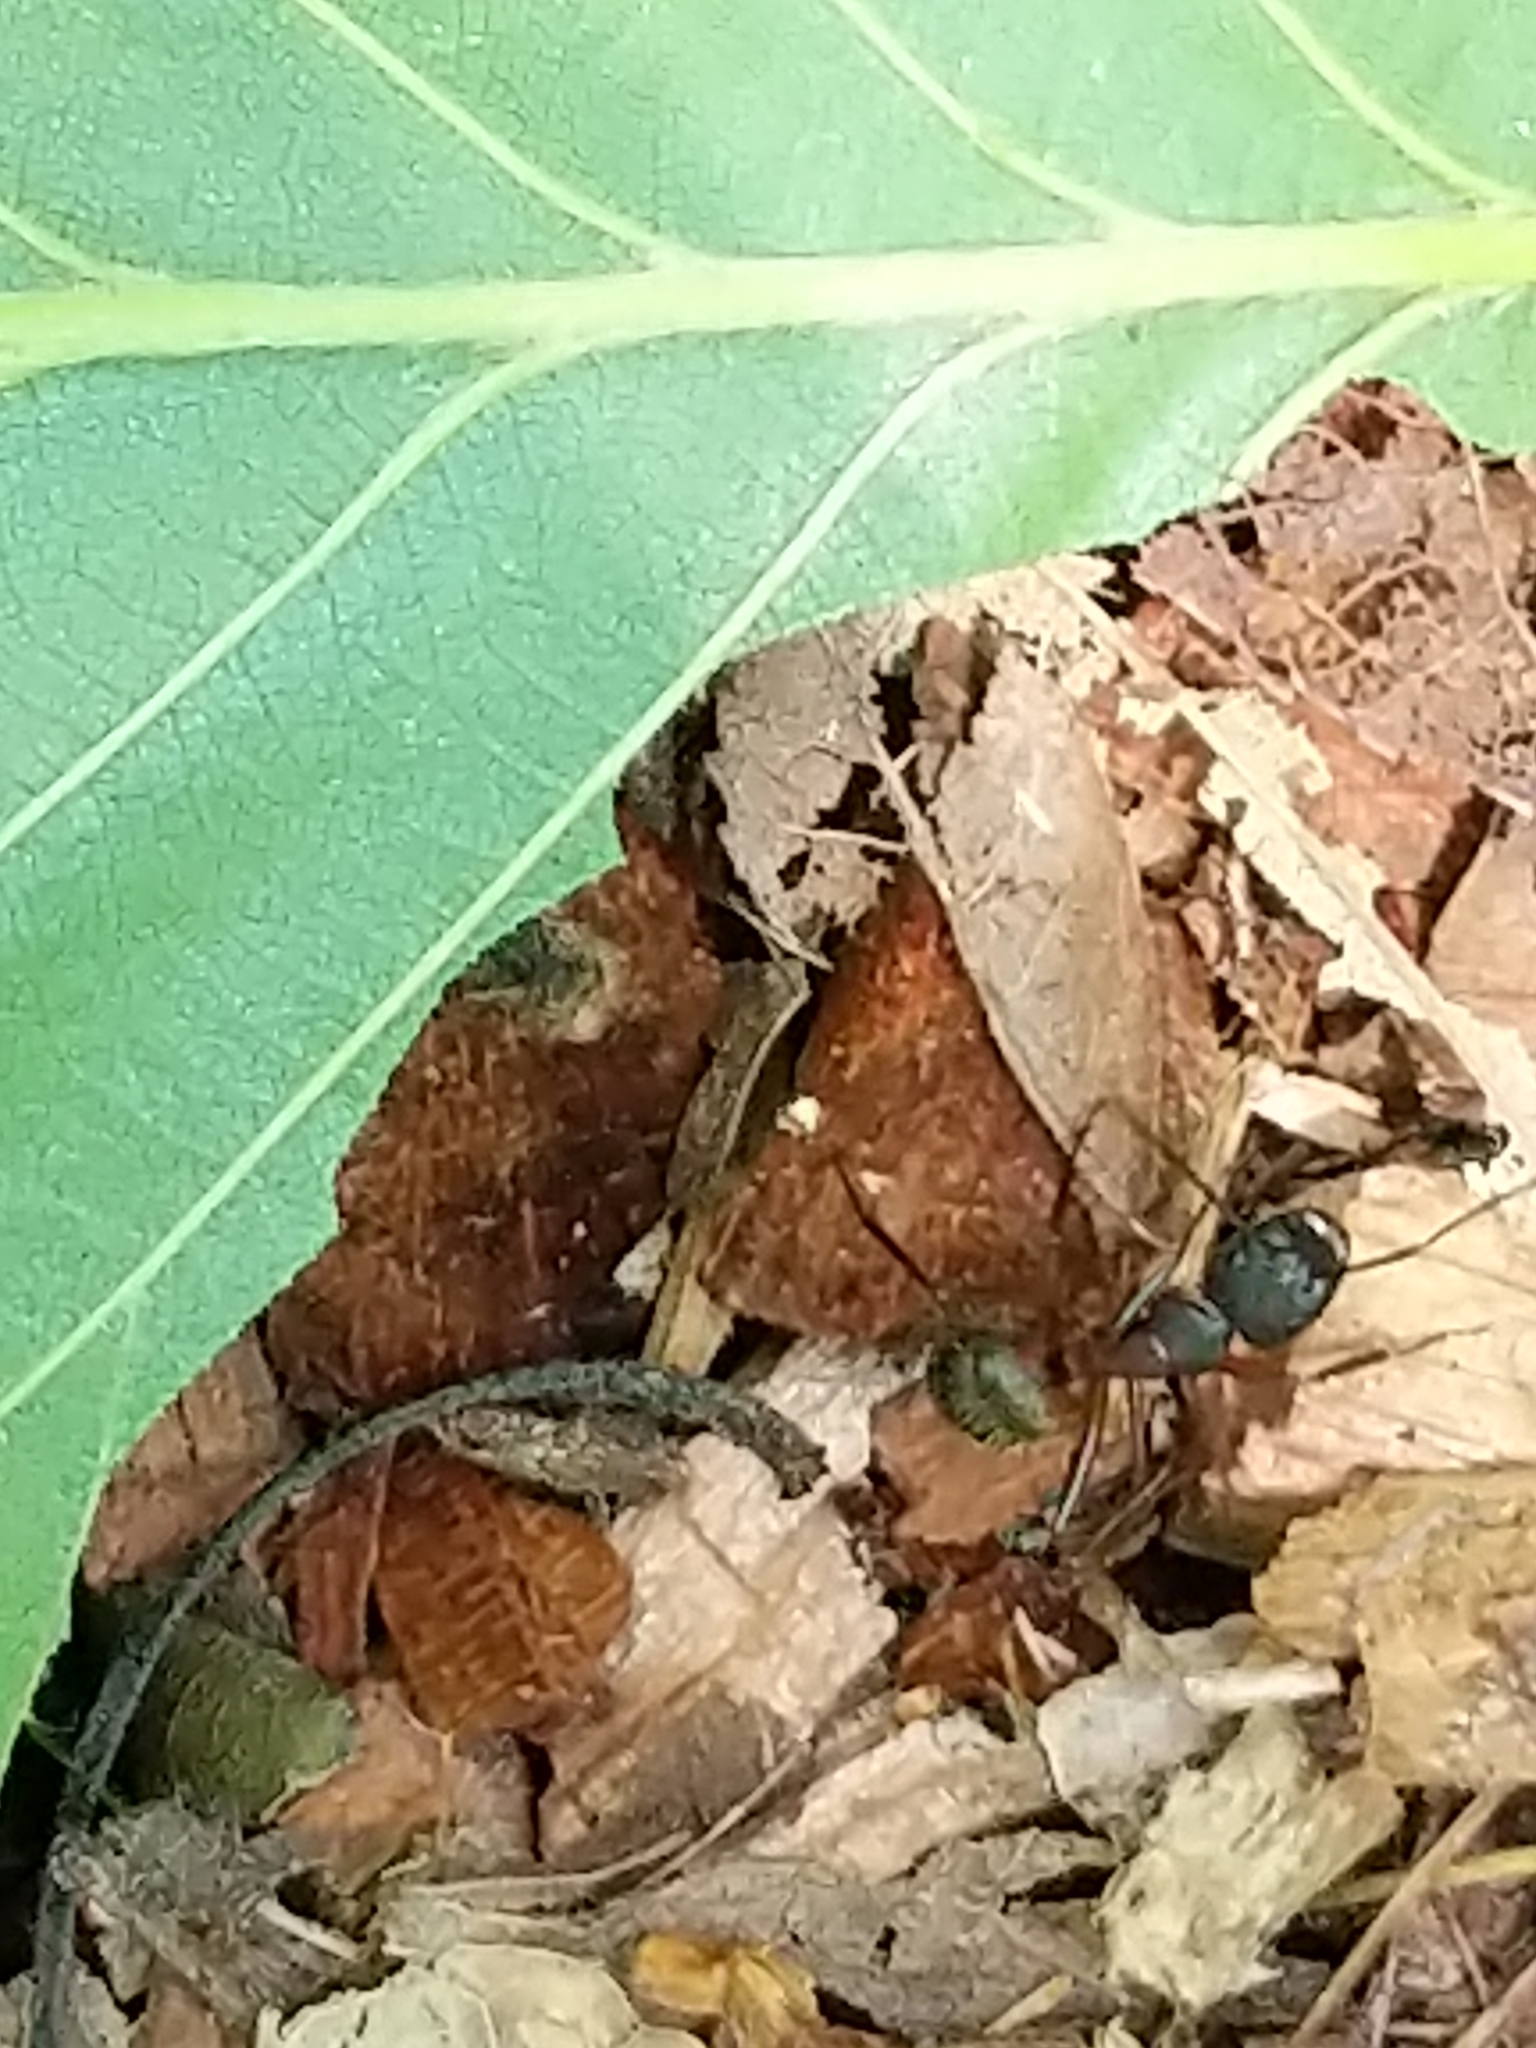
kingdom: Animalia
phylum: Arthropoda
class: Insecta
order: Hymenoptera
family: Formicidae
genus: Camponotus
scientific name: Camponotus chromaiodes
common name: Red carpenter ant
